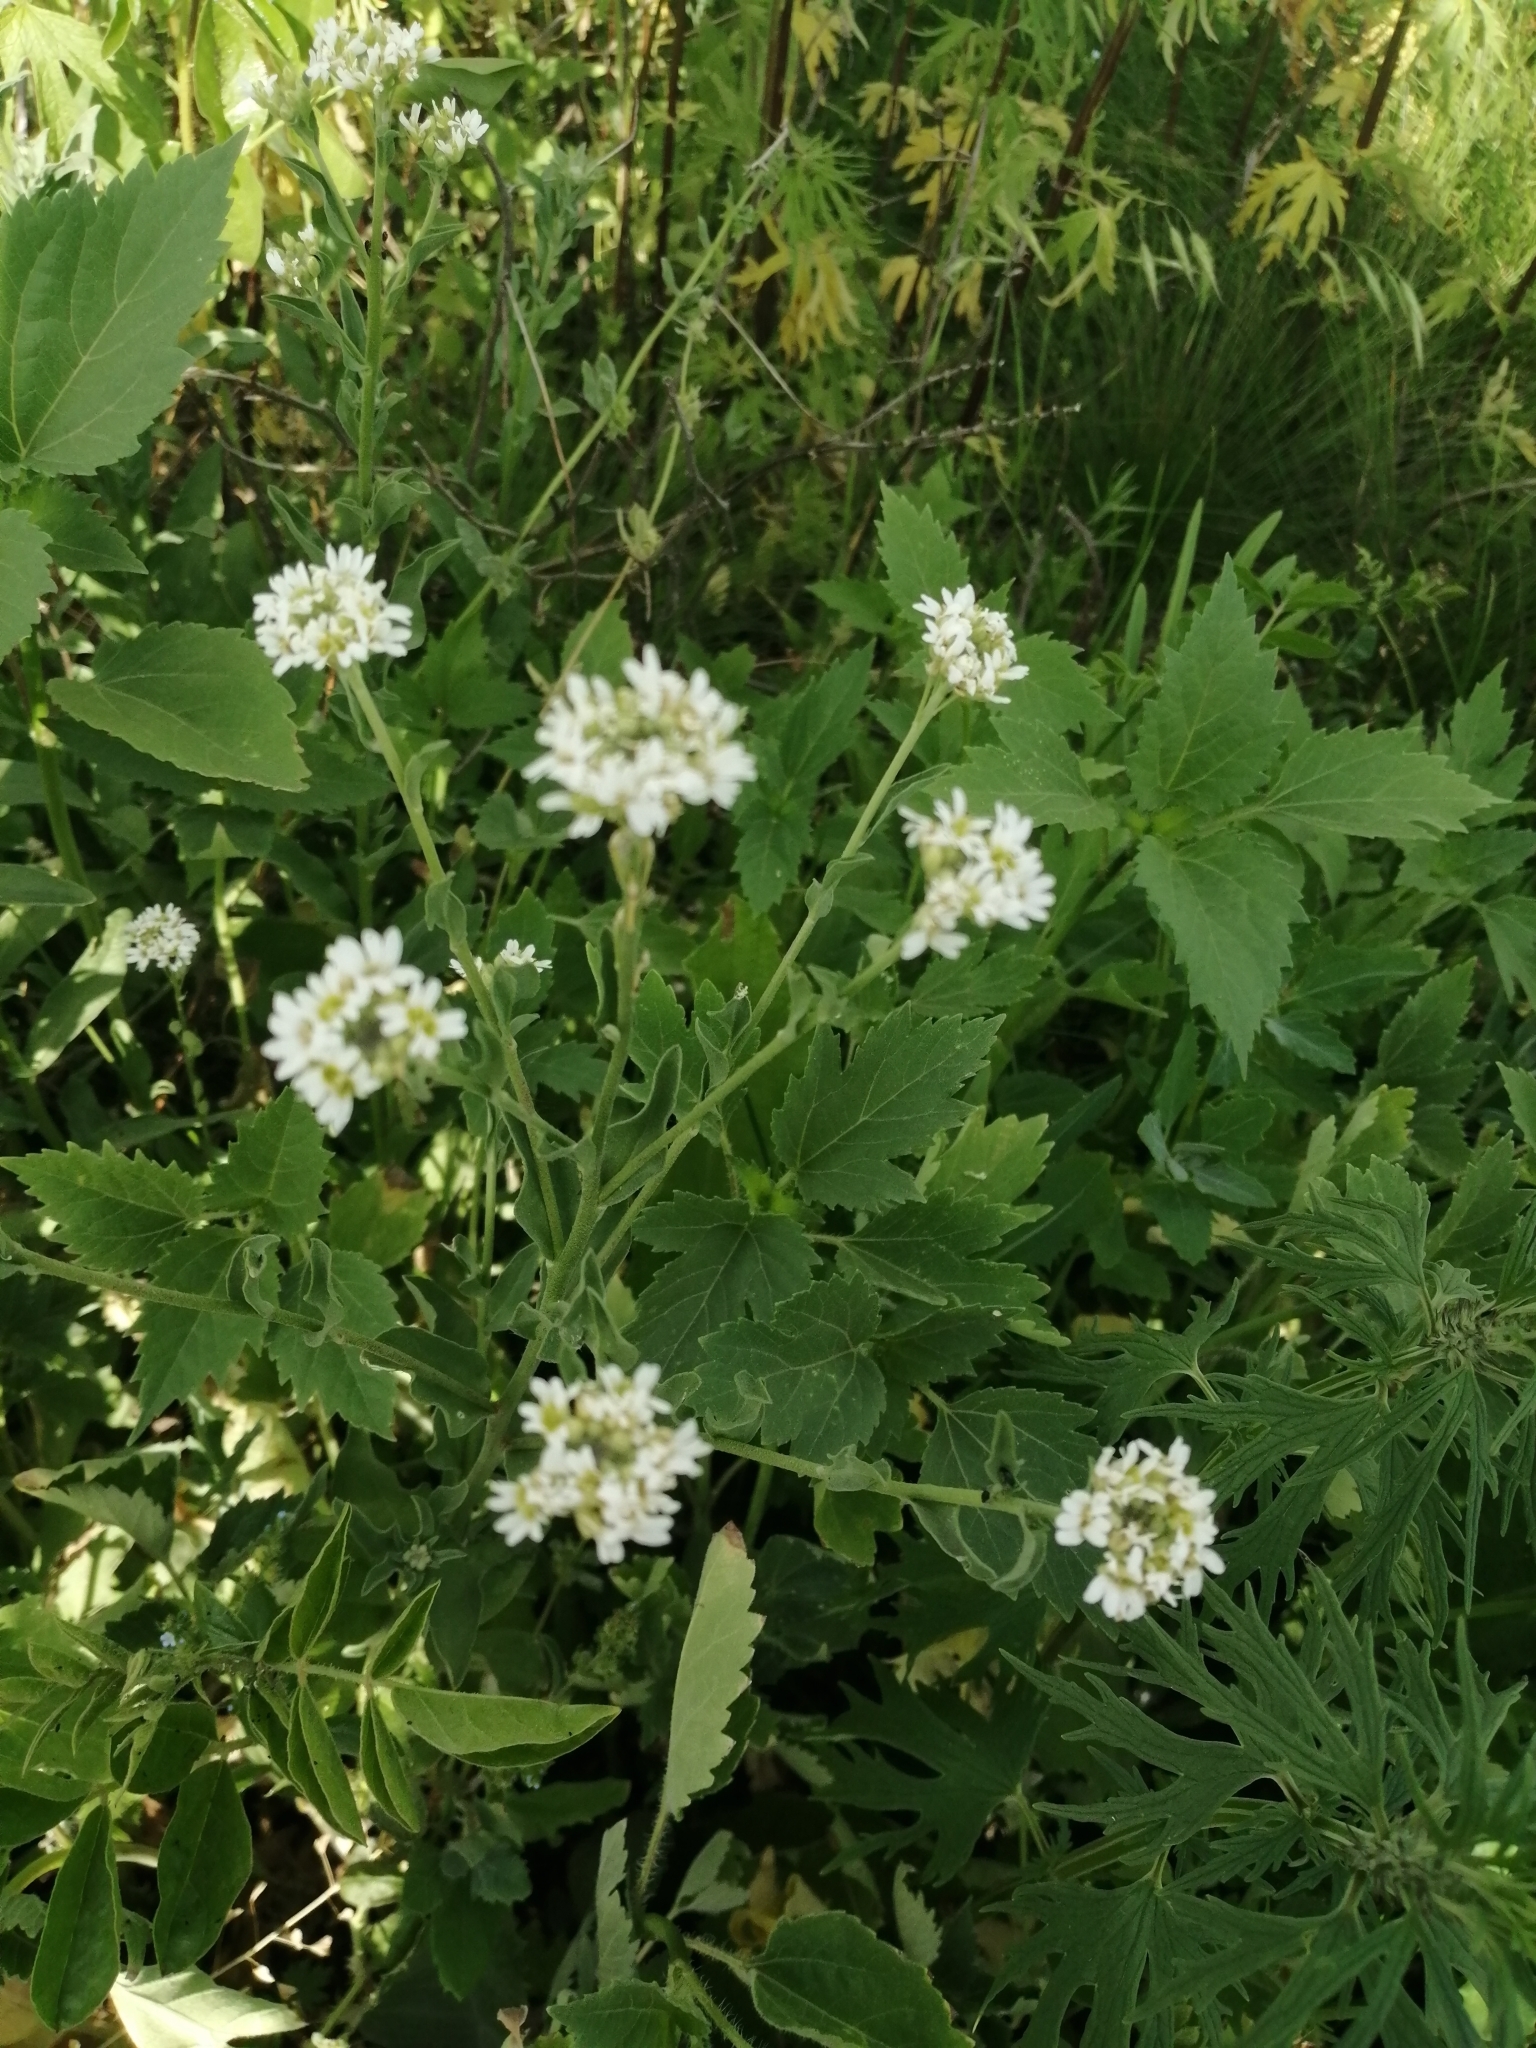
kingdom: Plantae
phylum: Tracheophyta
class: Magnoliopsida
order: Brassicales
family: Brassicaceae
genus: Berteroa
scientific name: Berteroa incana
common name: Hoary alison
